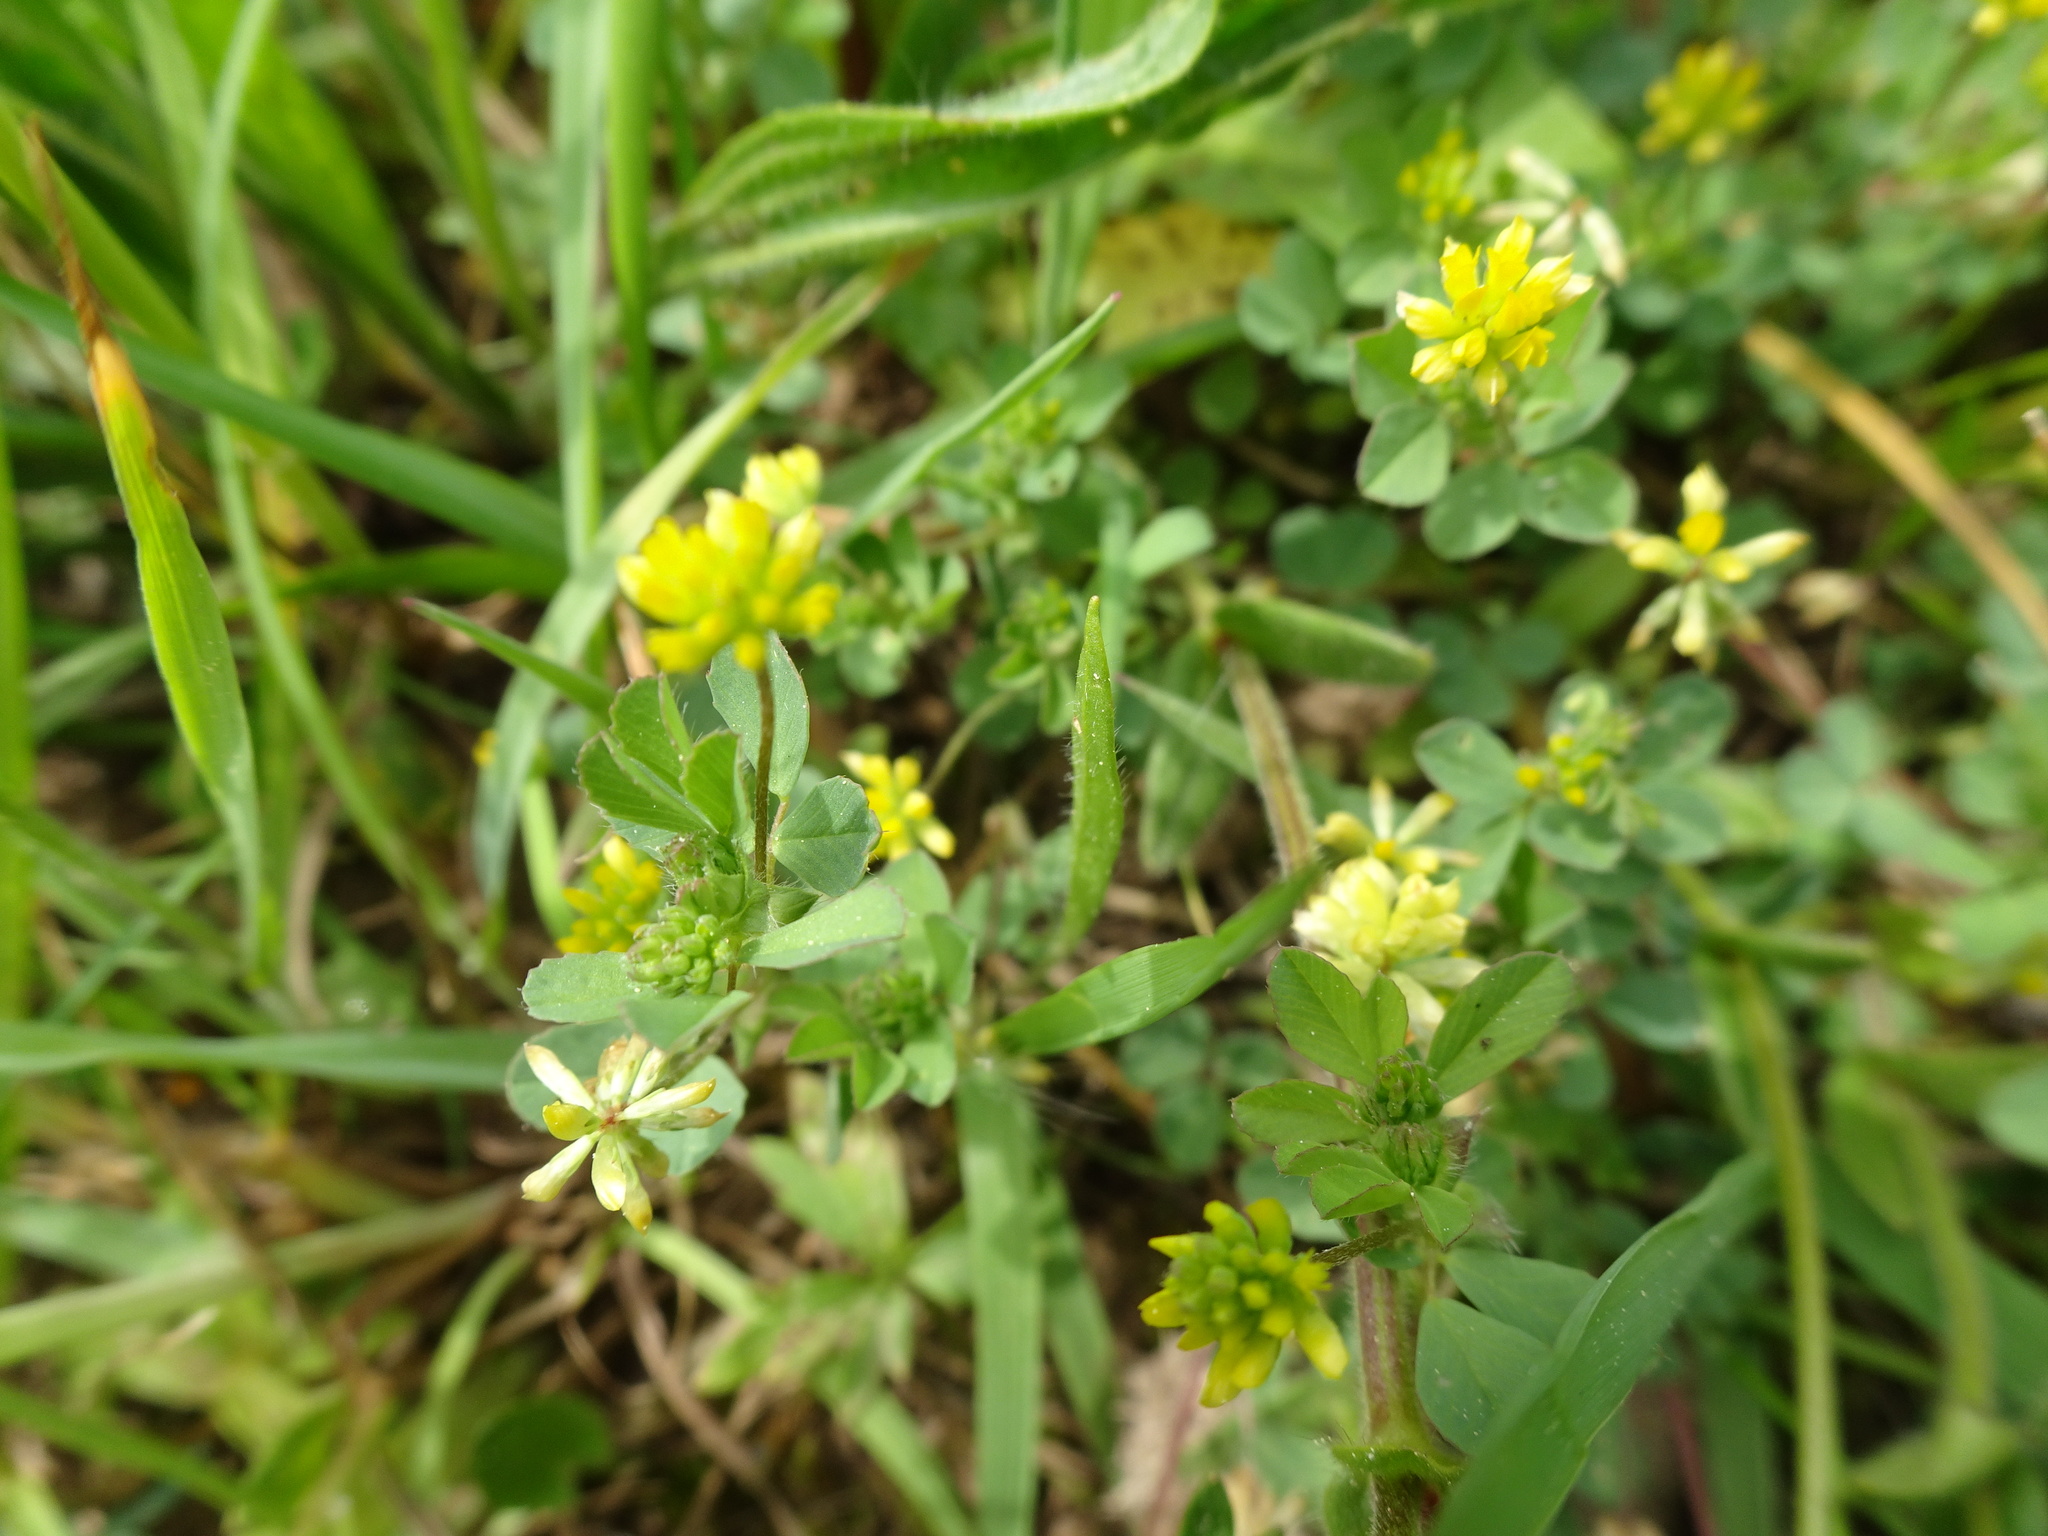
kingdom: Plantae
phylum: Tracheophyta
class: Magnoliopsida
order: Fabales
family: Fabaceae
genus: Trifolium
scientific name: Trifolium dubium
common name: Suckling clover
